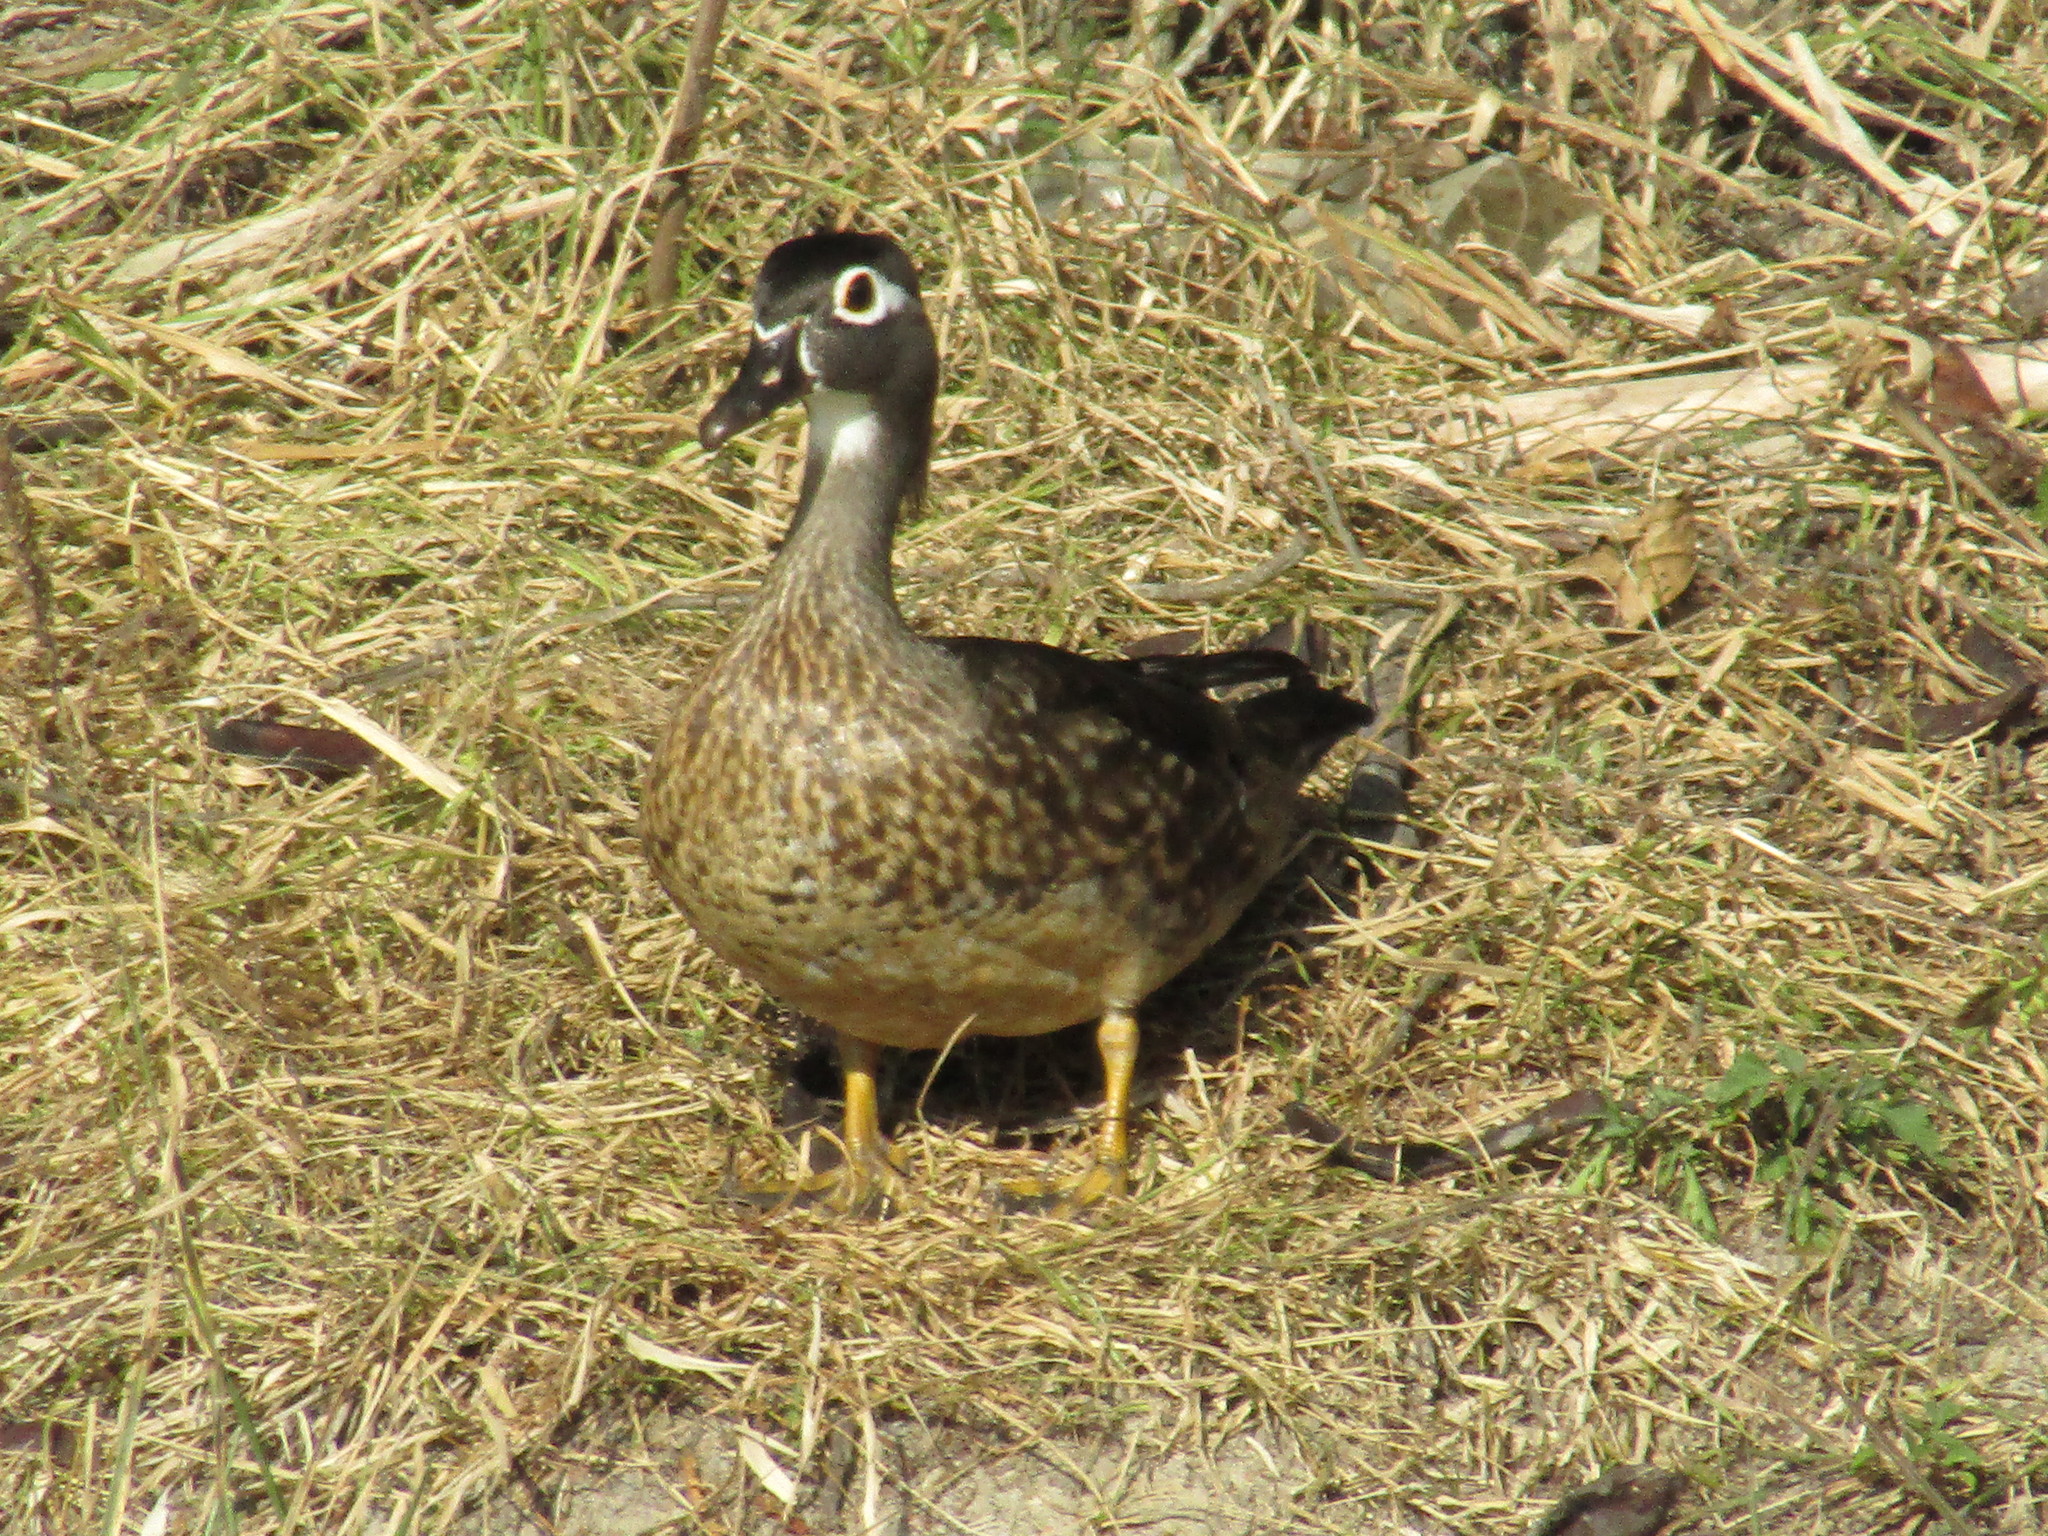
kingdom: Animalia
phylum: Chordata
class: Aves
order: Anseriformes
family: Anatidae
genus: Aix
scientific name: Aix sponsa
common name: Wood duck
